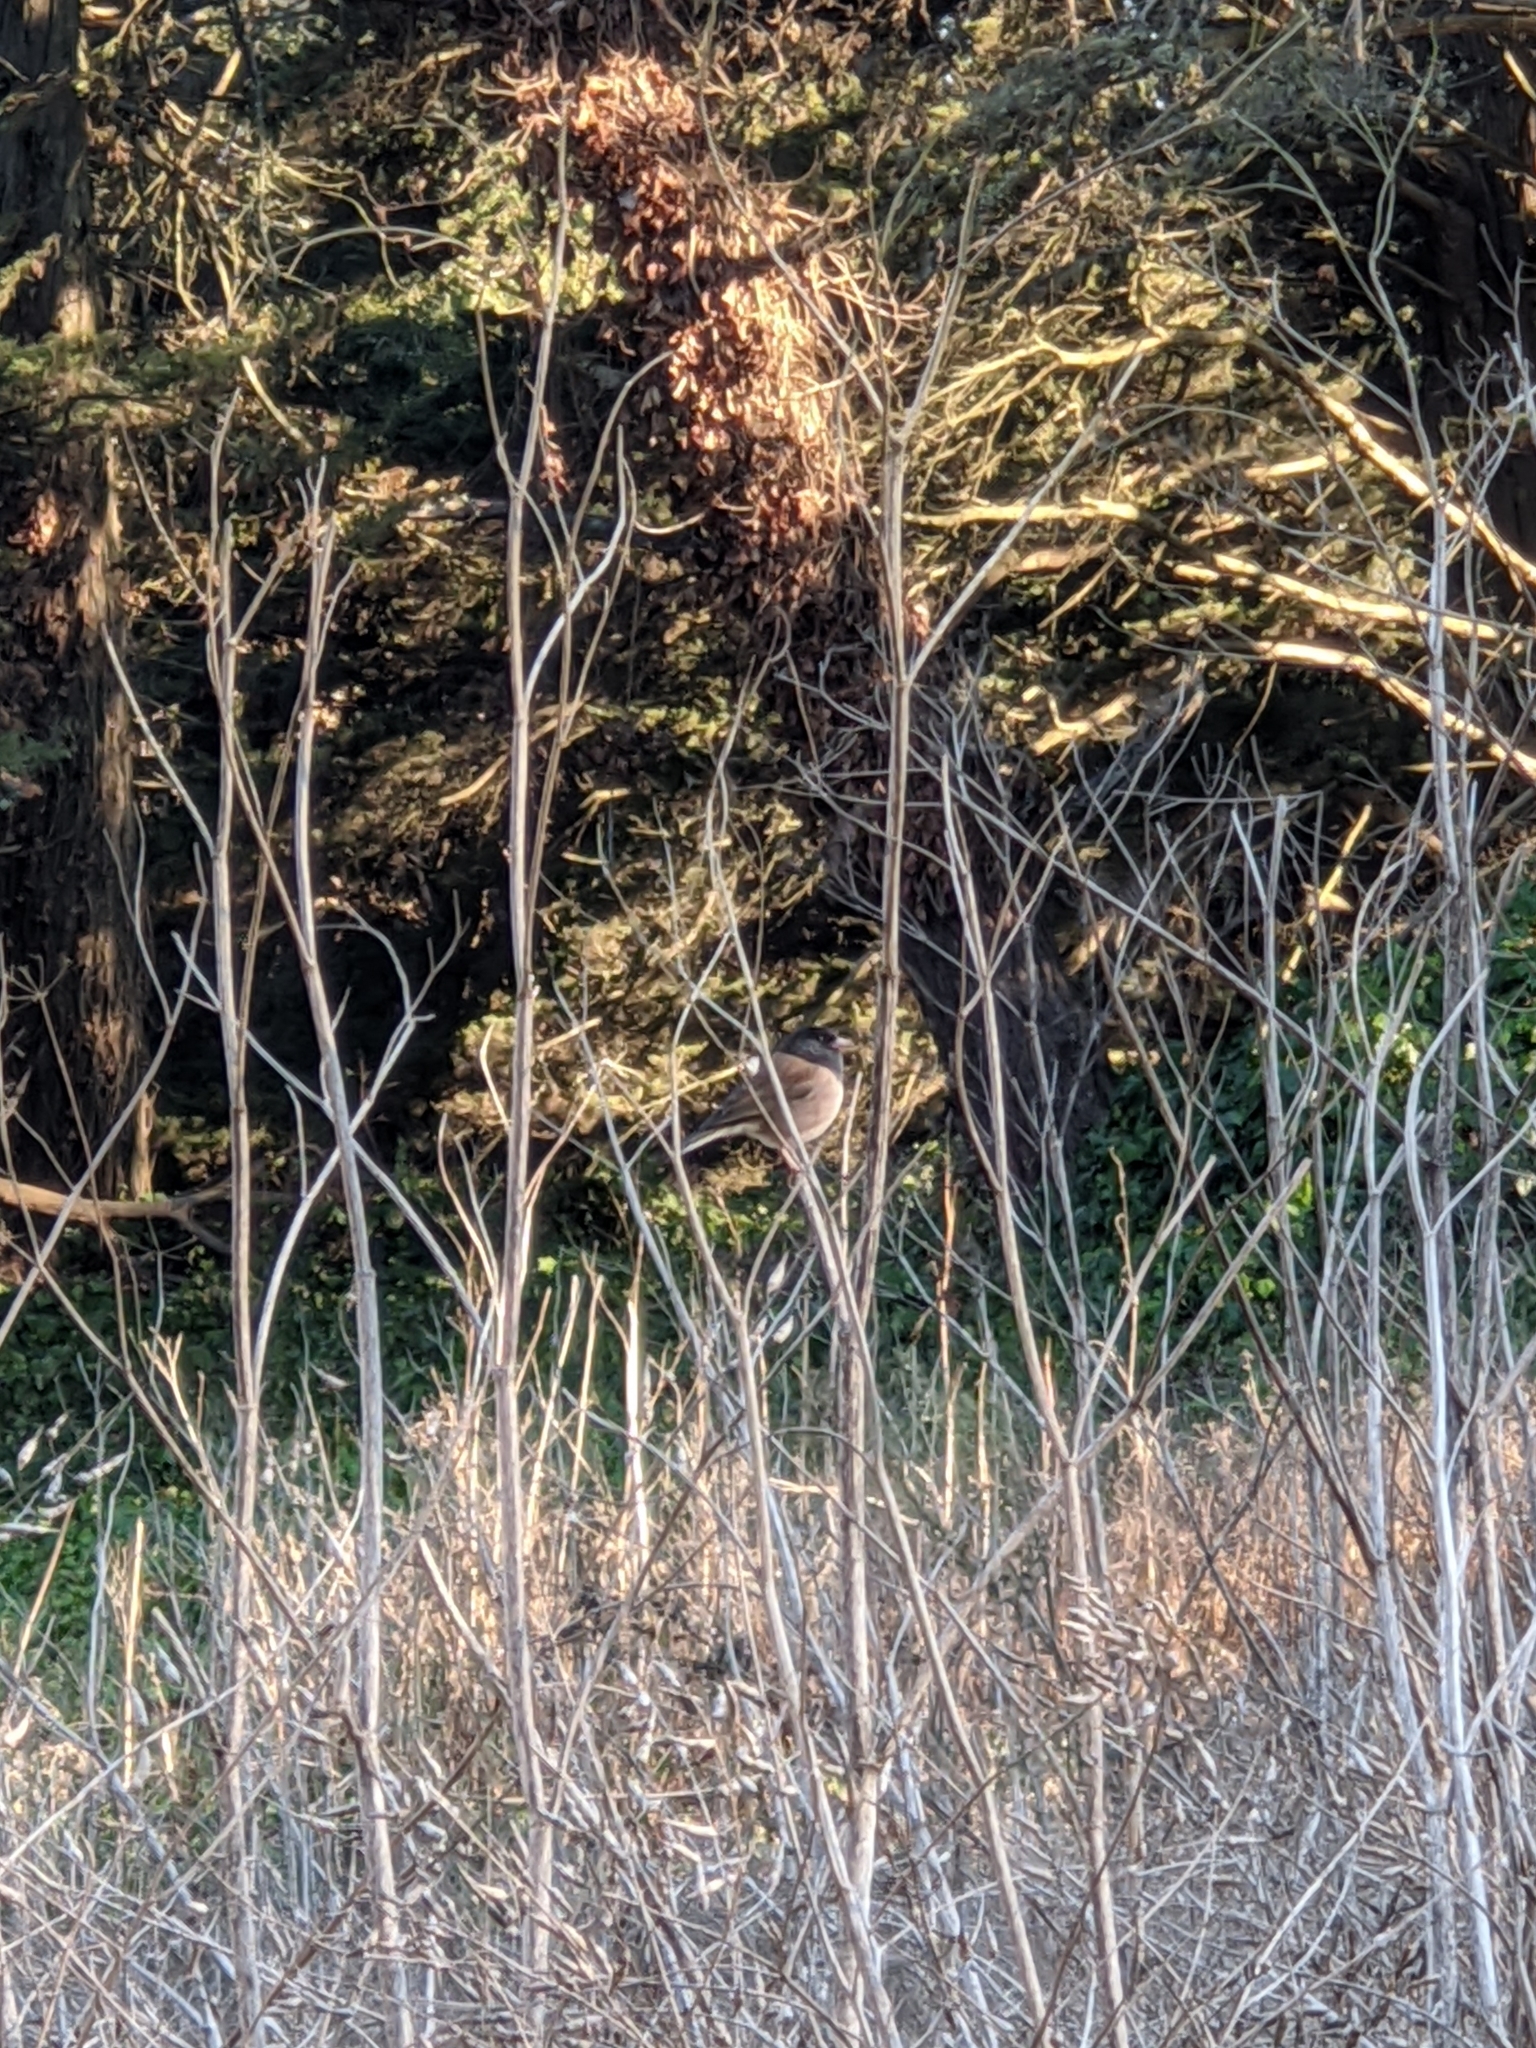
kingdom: Animalia
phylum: Chordata
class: Aves
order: Passeriformes
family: Passerellidae
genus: Junco
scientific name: Junco hyemalis
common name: Dark-eyed junco
